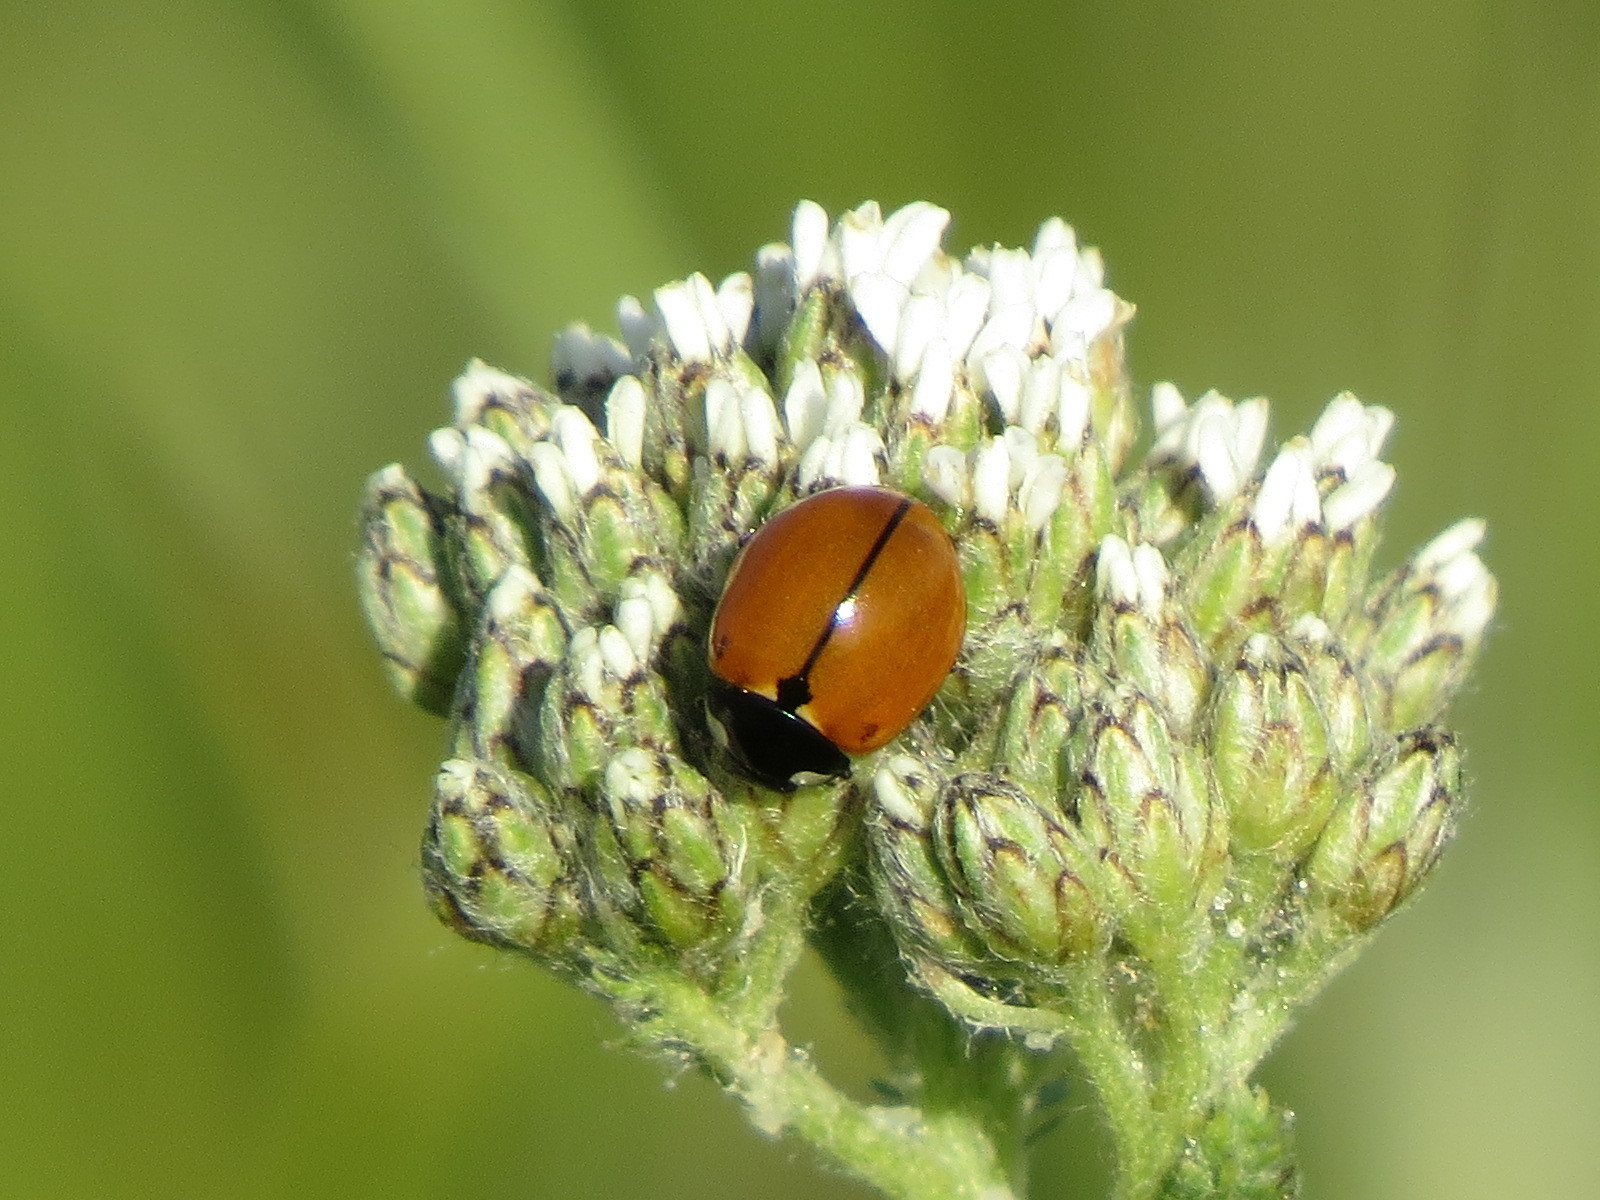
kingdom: Animalia
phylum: Arthropoda
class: Insecta
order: Coleoptera
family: Coccinellidae
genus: Coccinella
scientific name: Coccinella californica
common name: Lady beetle
